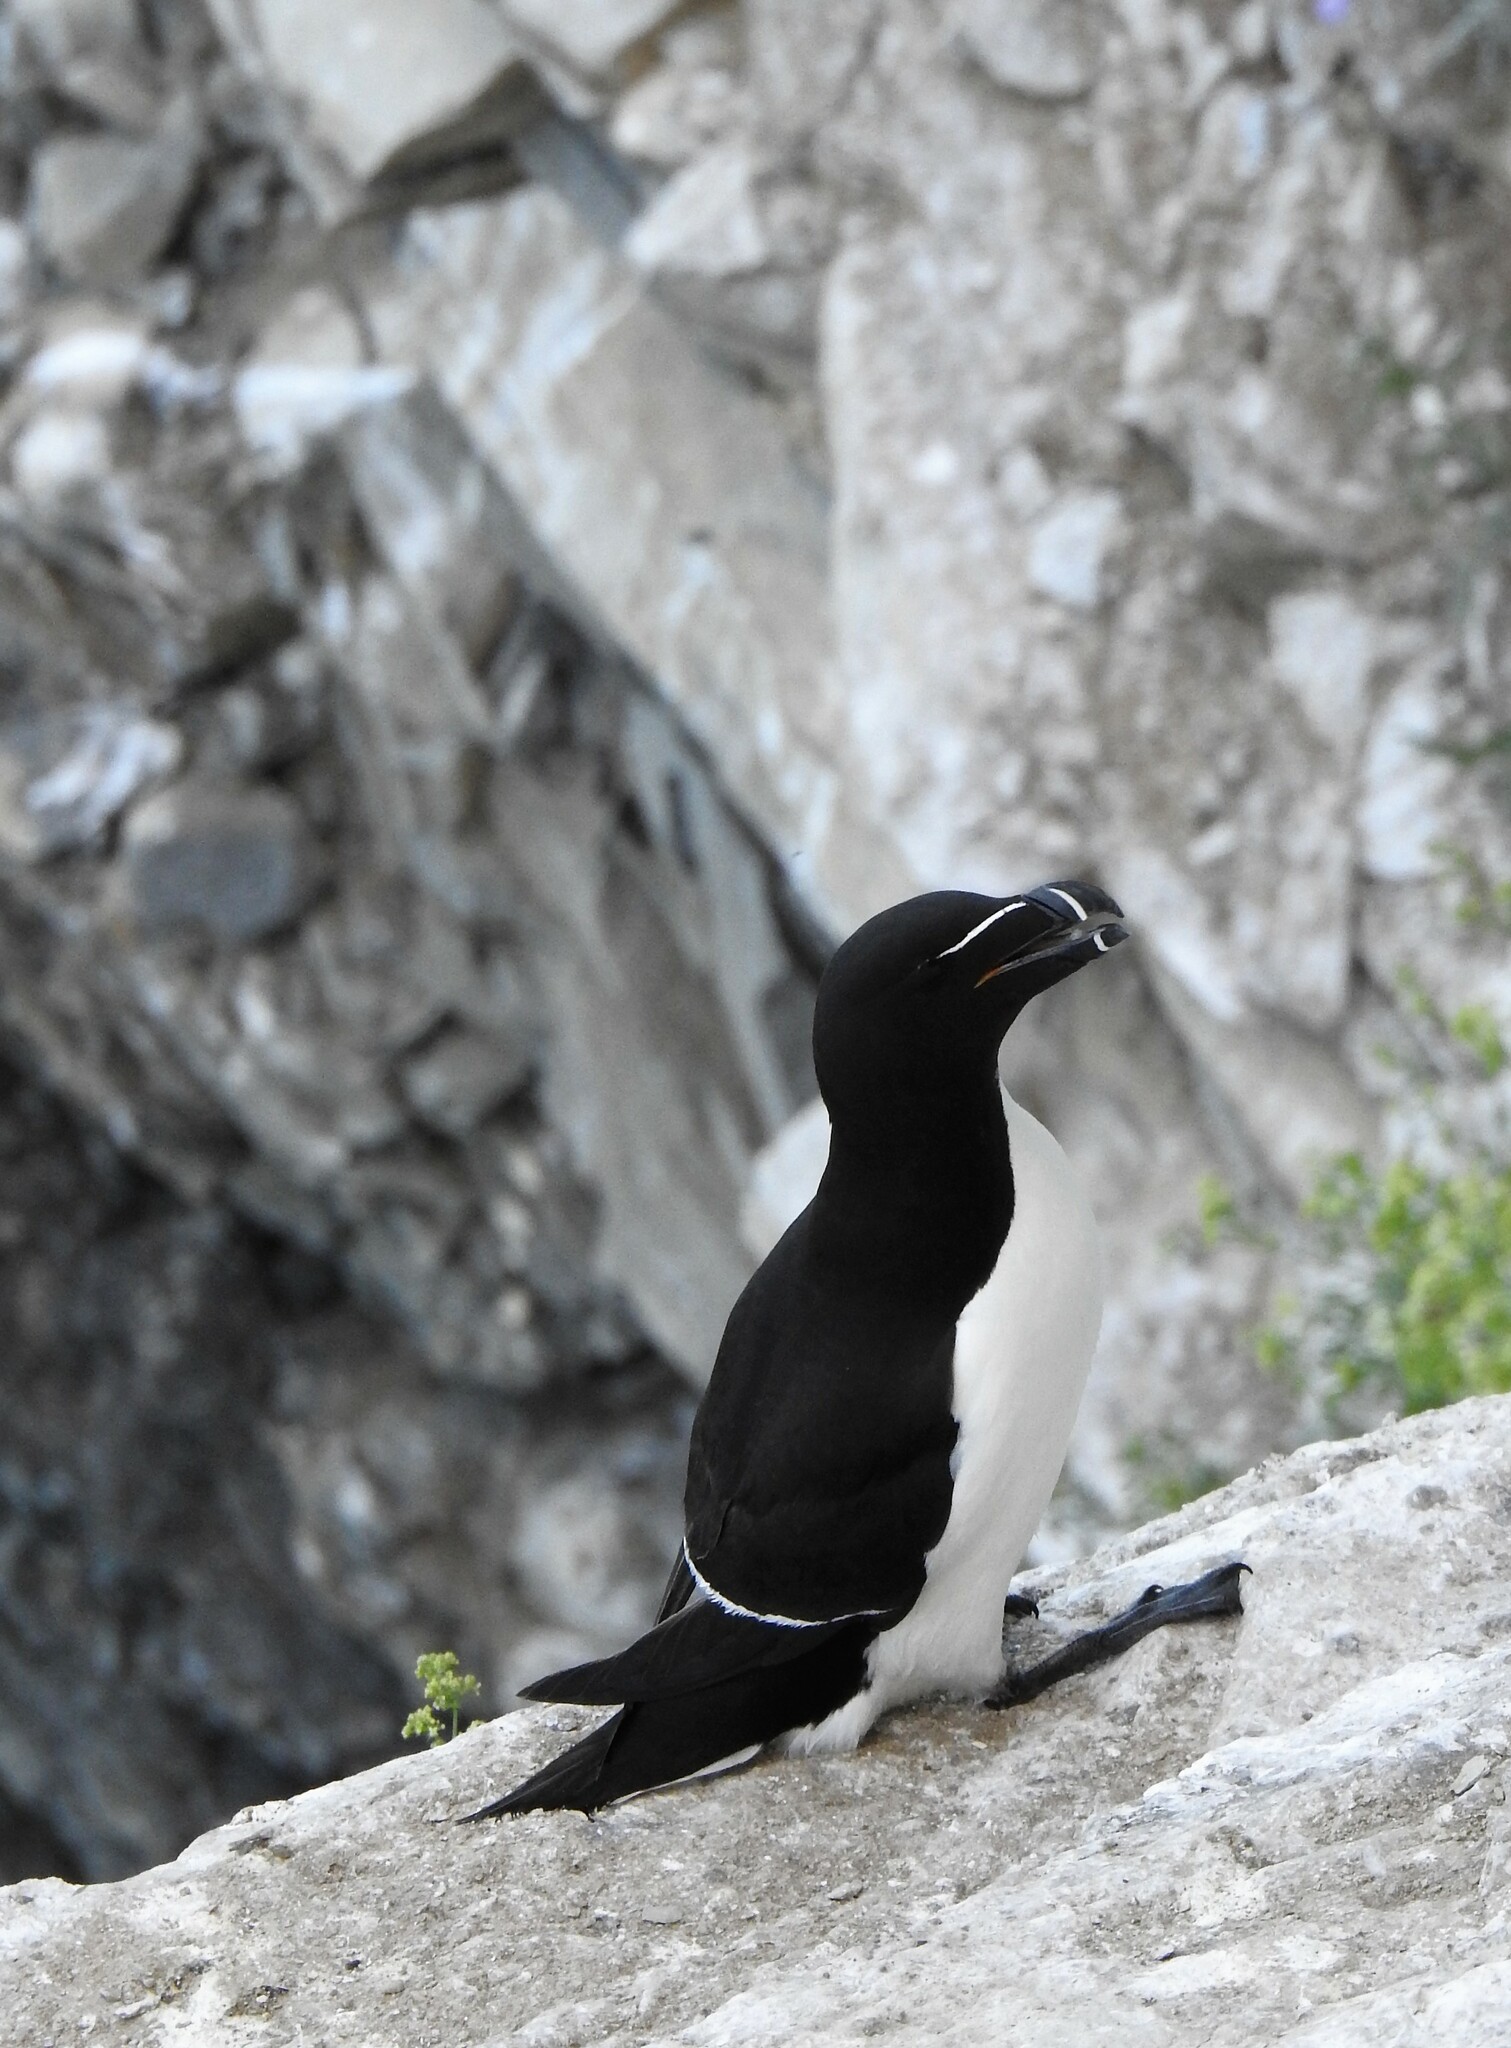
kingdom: Animalia
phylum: Chordata
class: Aves
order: Charadriiformes
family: Alcidae
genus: Alca
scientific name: Alca torda
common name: Razorbill
